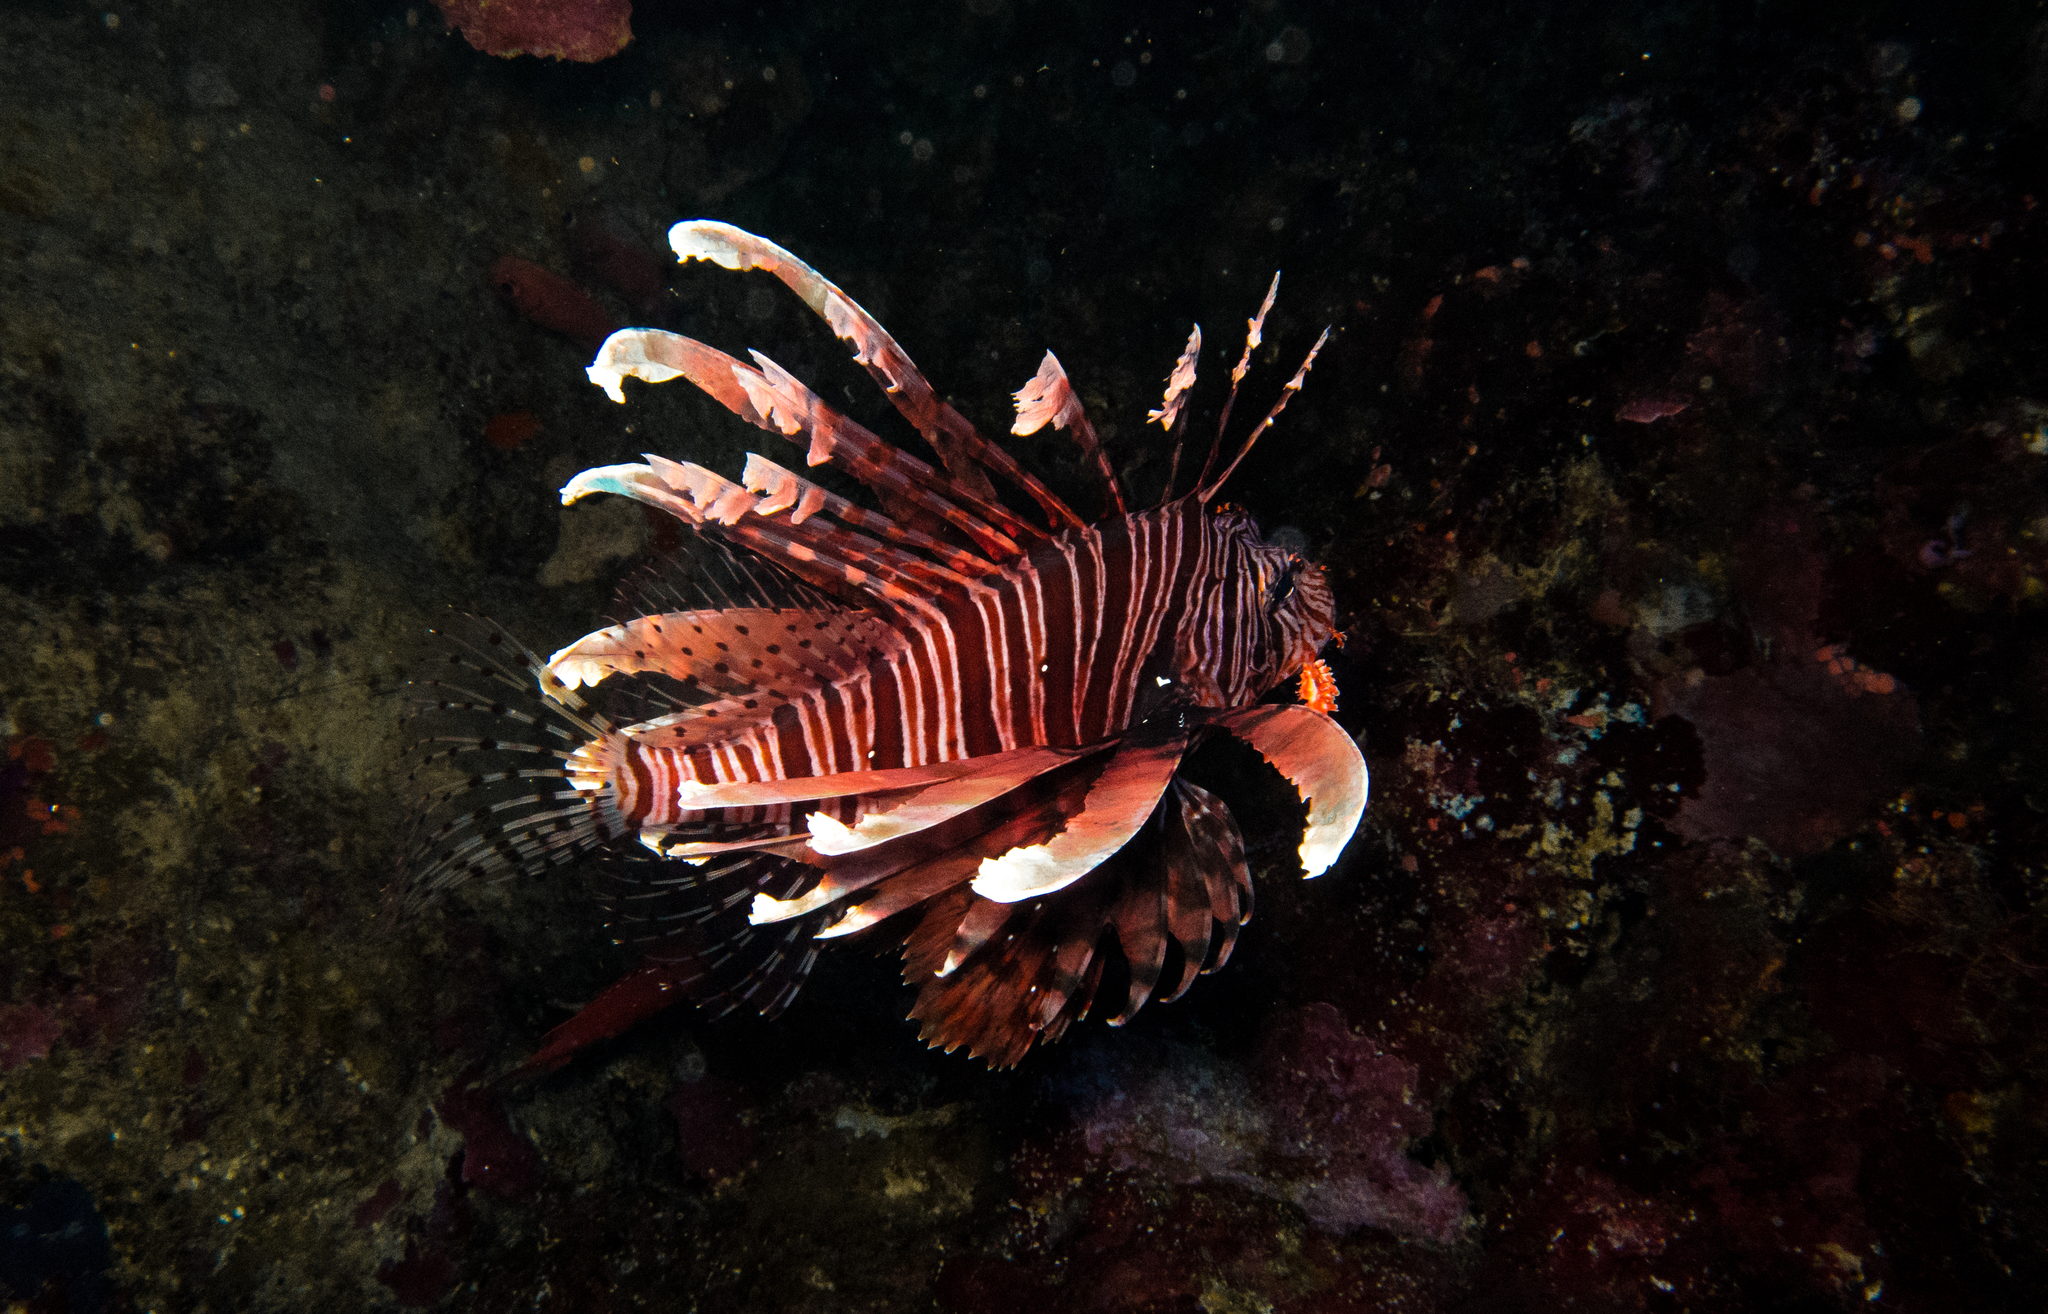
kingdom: Animalia
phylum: Chordata
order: Scorpaeniformes
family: Scorpaenidae
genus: Pterois
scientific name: Pterois volitans
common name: Lionfish
